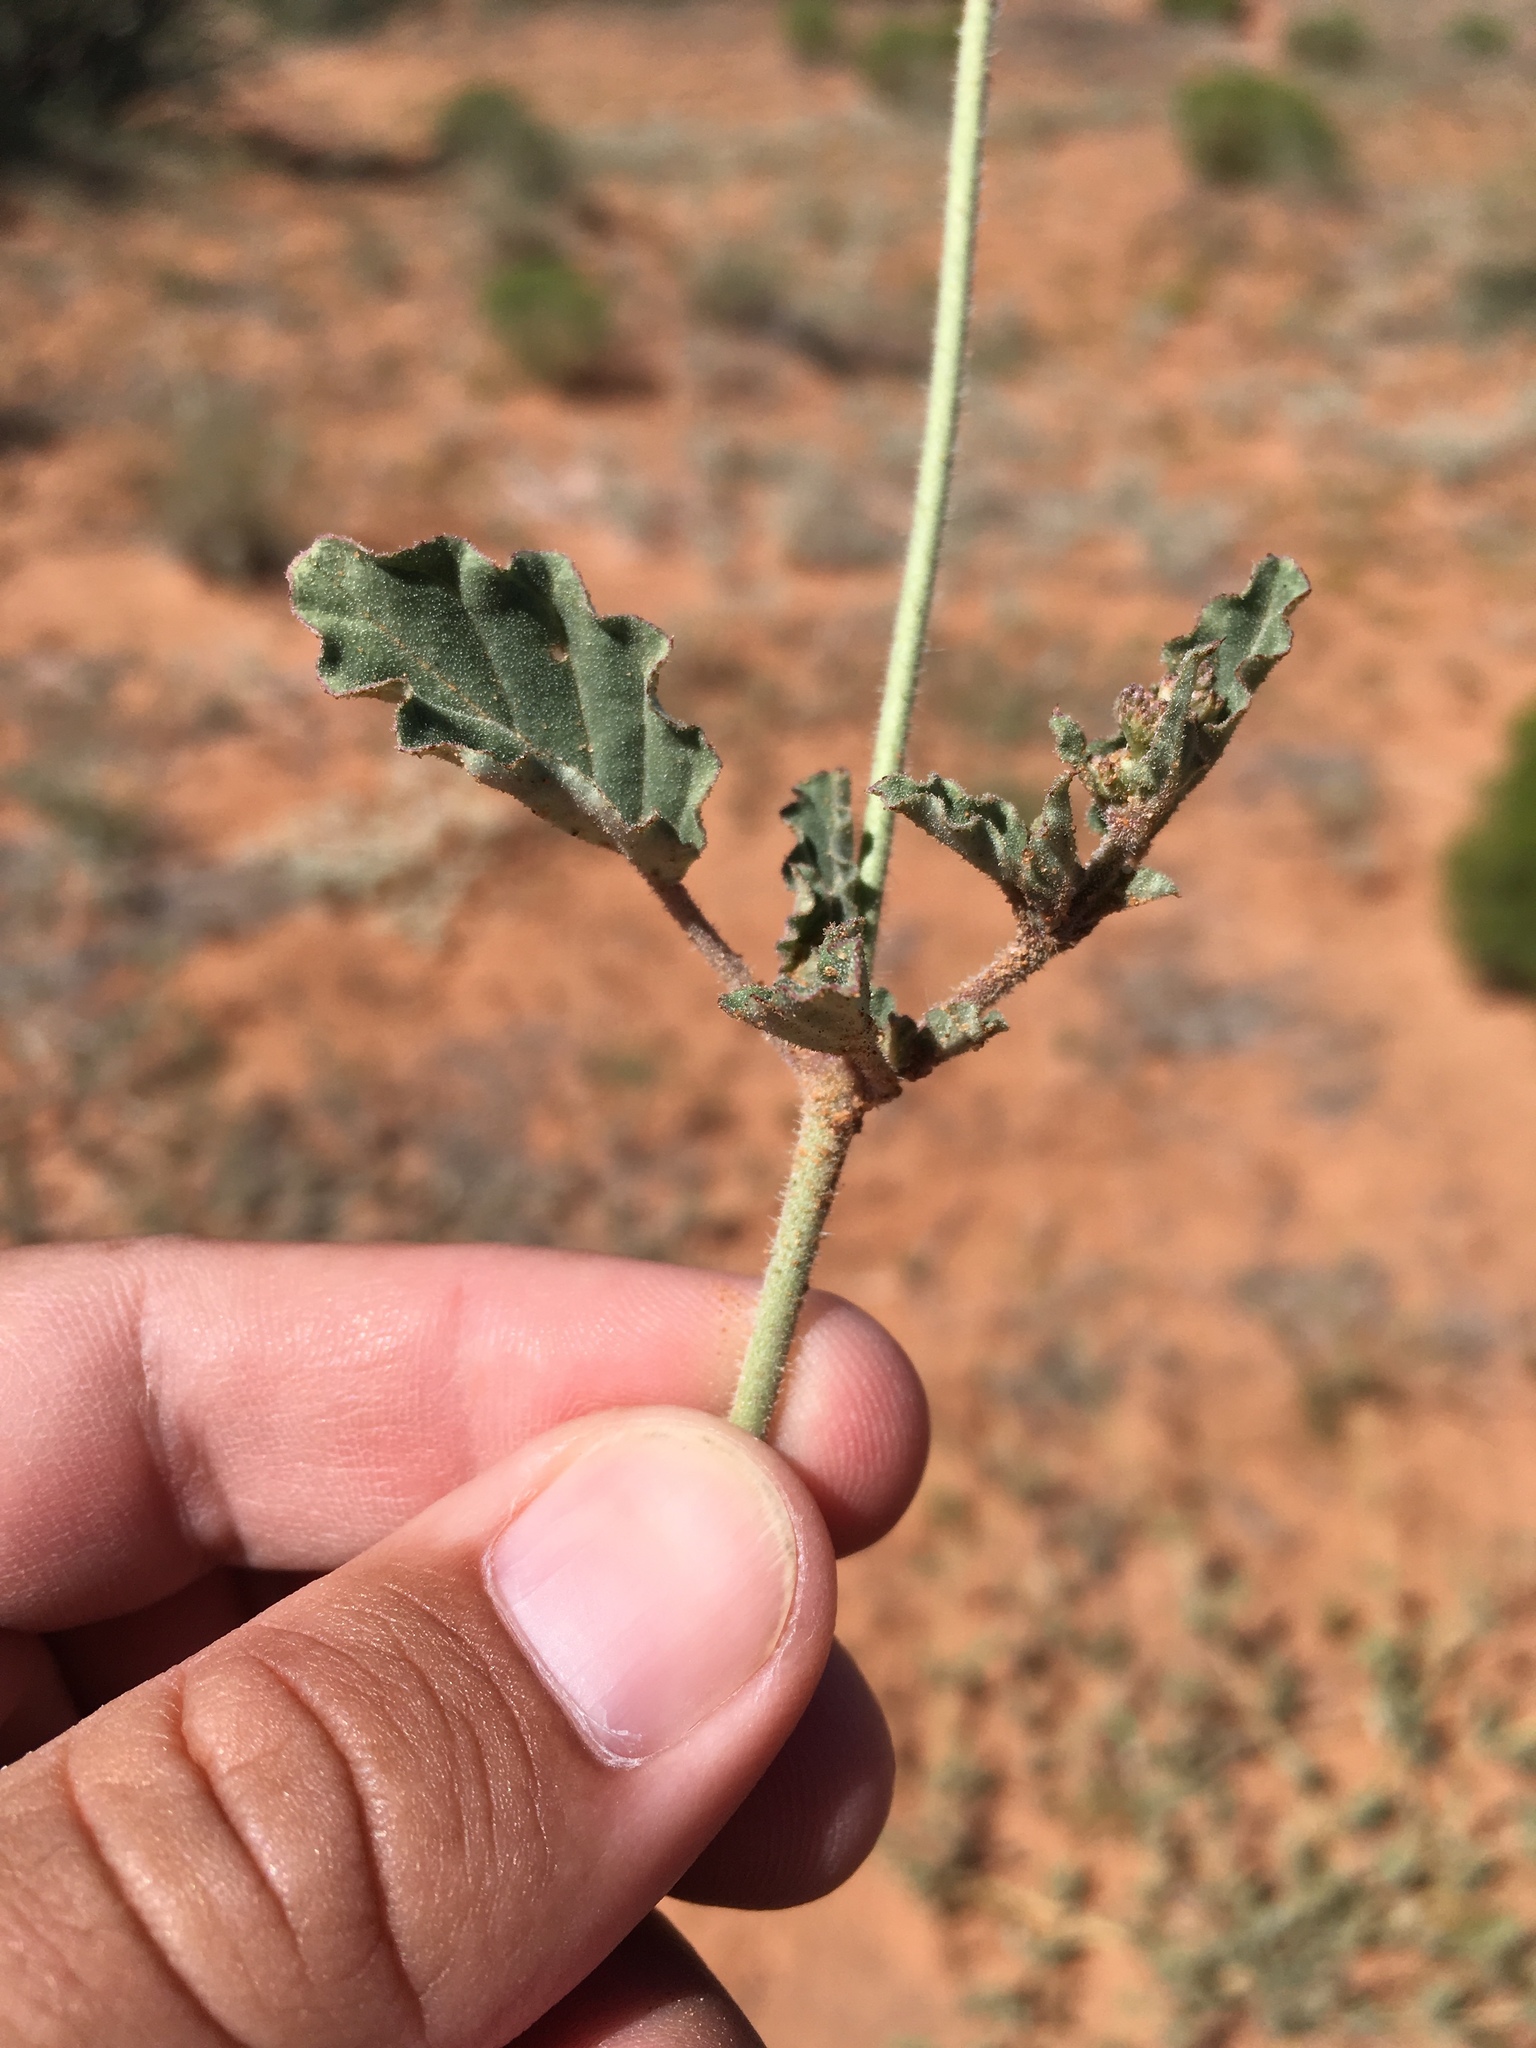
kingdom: Plantae
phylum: Tracheophyta
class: Magnoliopsida
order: Caryophyllales
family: Nyctaginaceae
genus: Boerhavia
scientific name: Boerhavia torreyana
